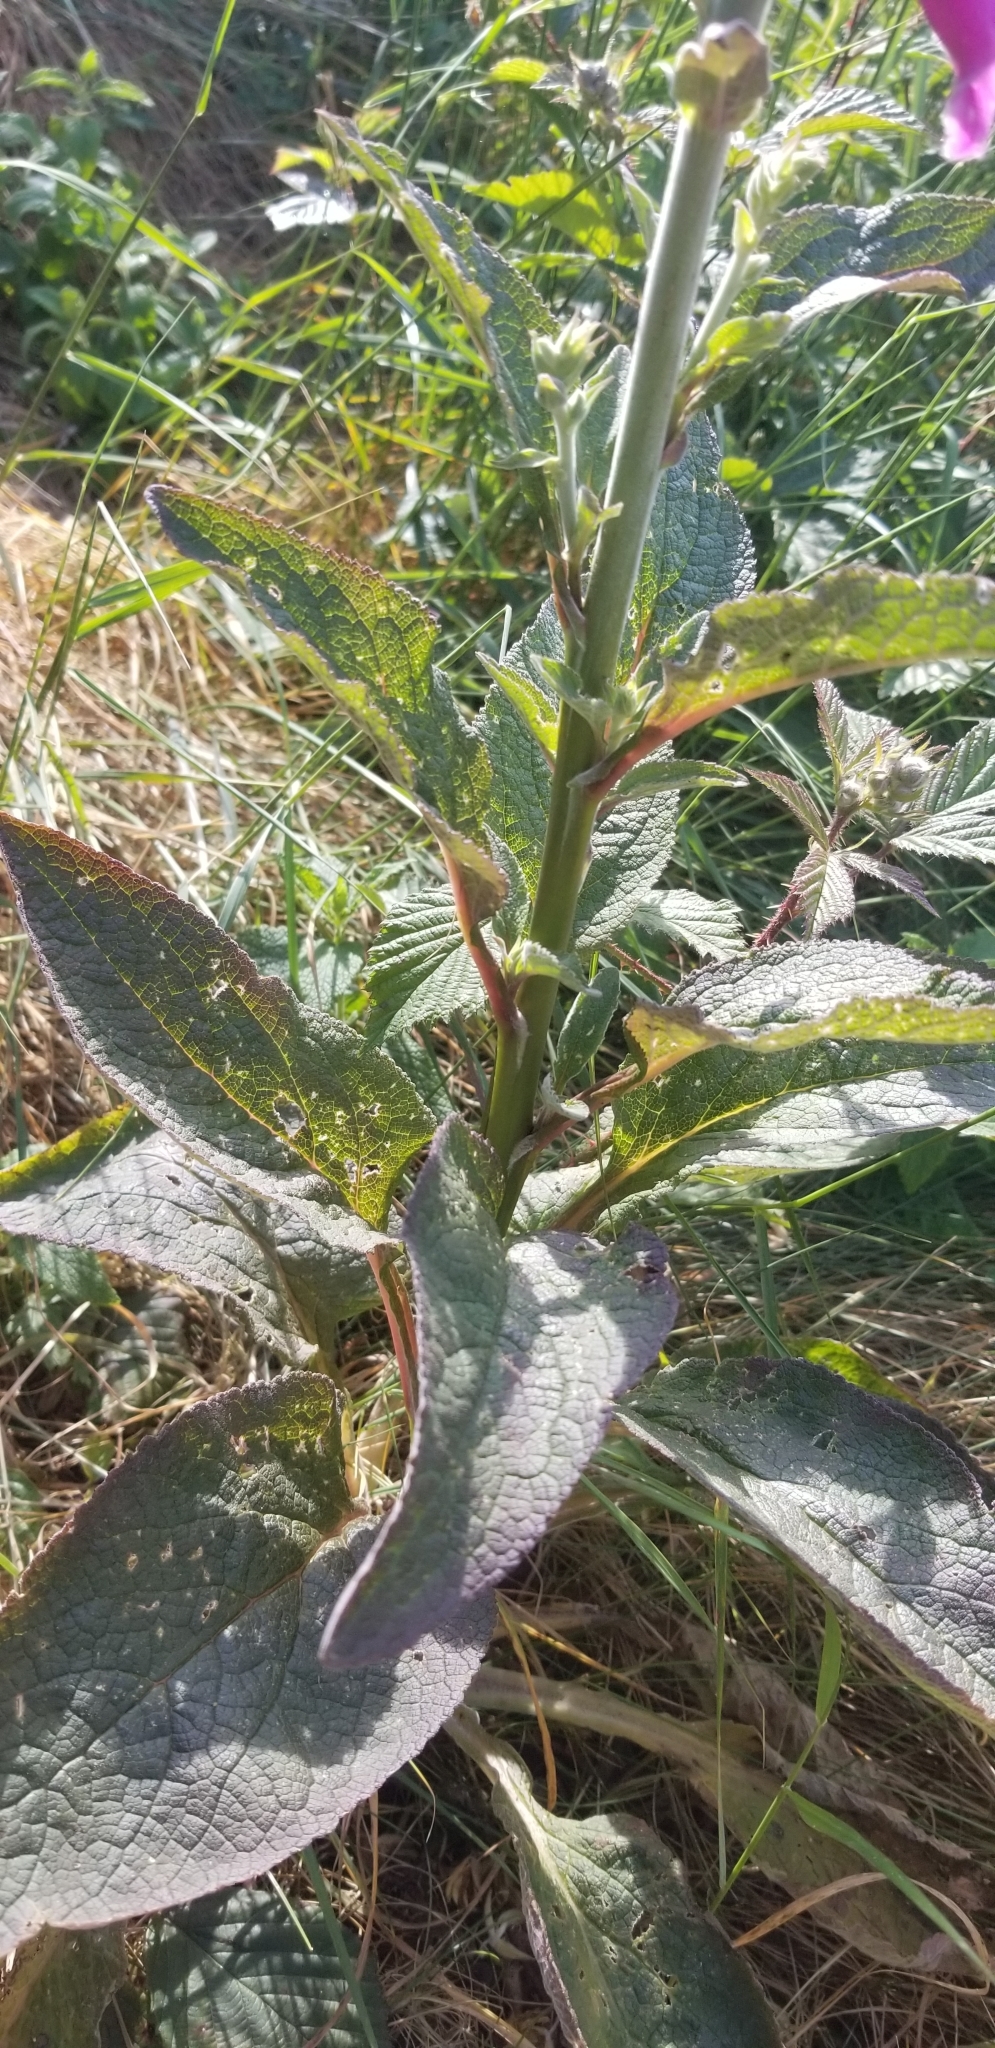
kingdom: Plantae
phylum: Tracheophyta
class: Magnoliopsida
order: Lamiales
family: Plantaginaceae
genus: Digitalis
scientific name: Digitalis purpurea
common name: Foxglove
